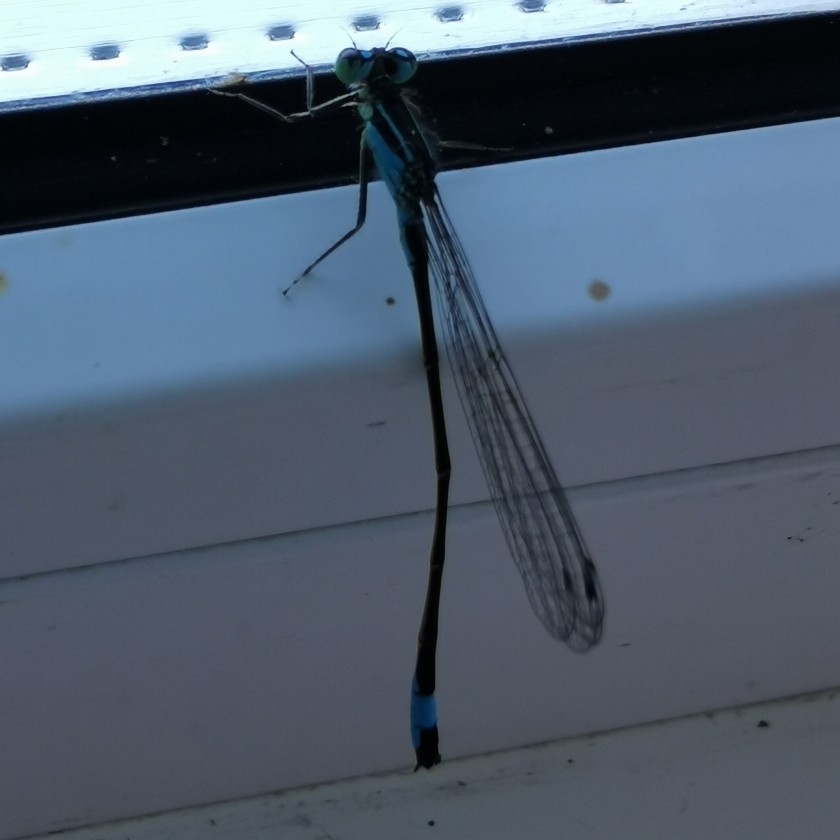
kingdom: Animalia
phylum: Arthropoda
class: Insecta
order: Odonata
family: Coenagrionidae
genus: Ischnura
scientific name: Ischnura elegans
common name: Blue-tailed damselfly
